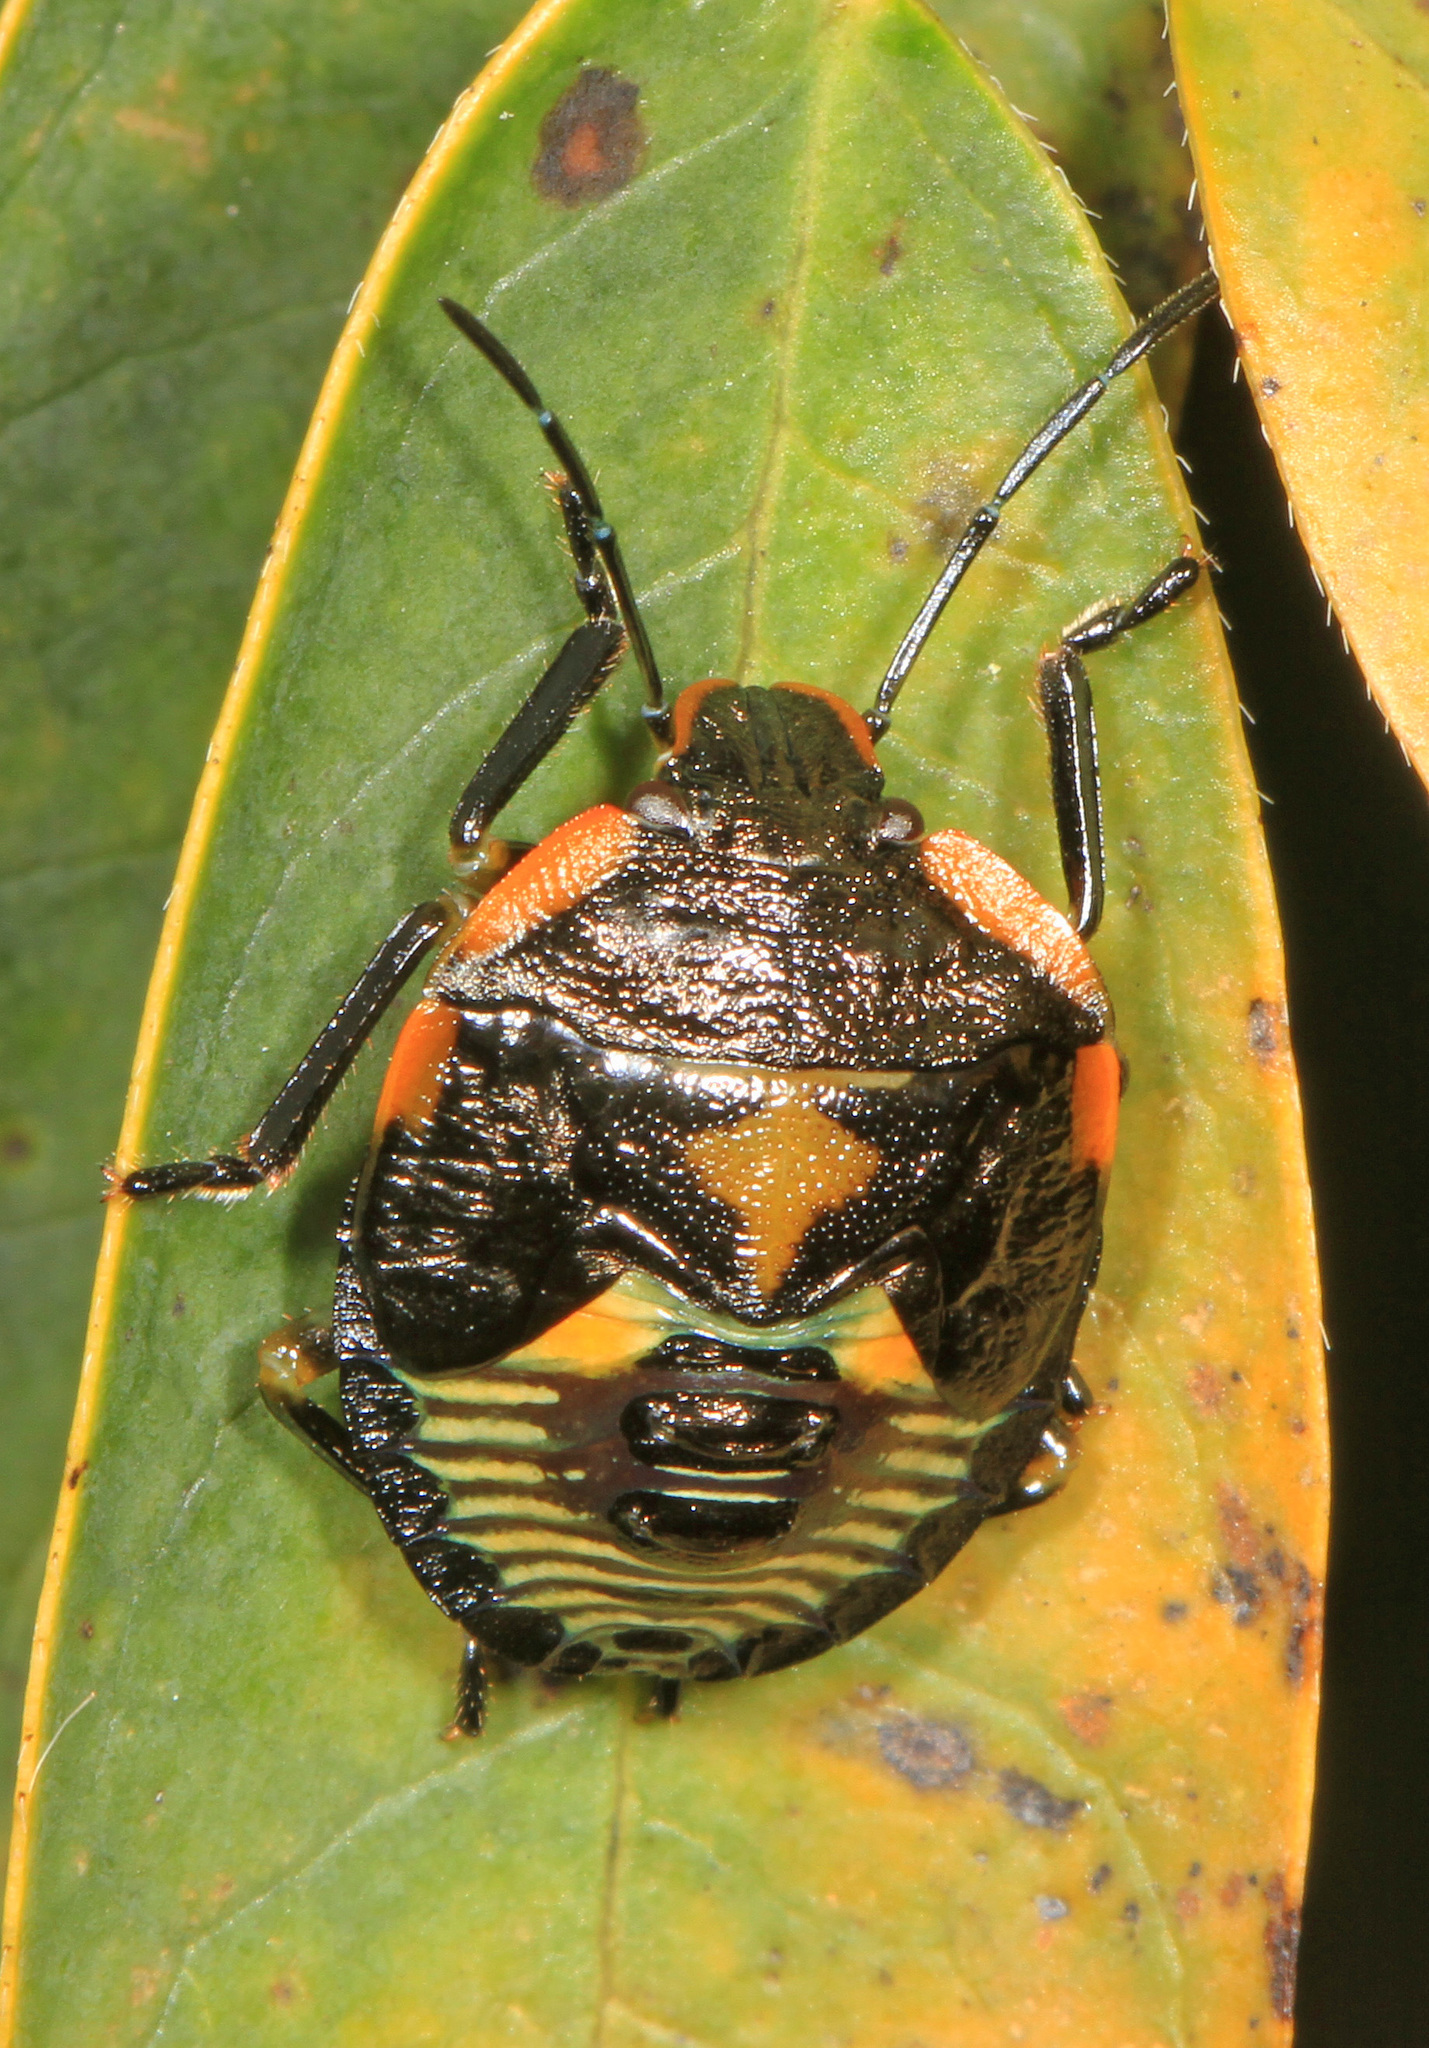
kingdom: Animalia
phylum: Arthropoda
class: Insecta
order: Hemiptera
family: Pentatomidae
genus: Chinavia
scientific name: Chinavia hilaris
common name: Green stink bug
